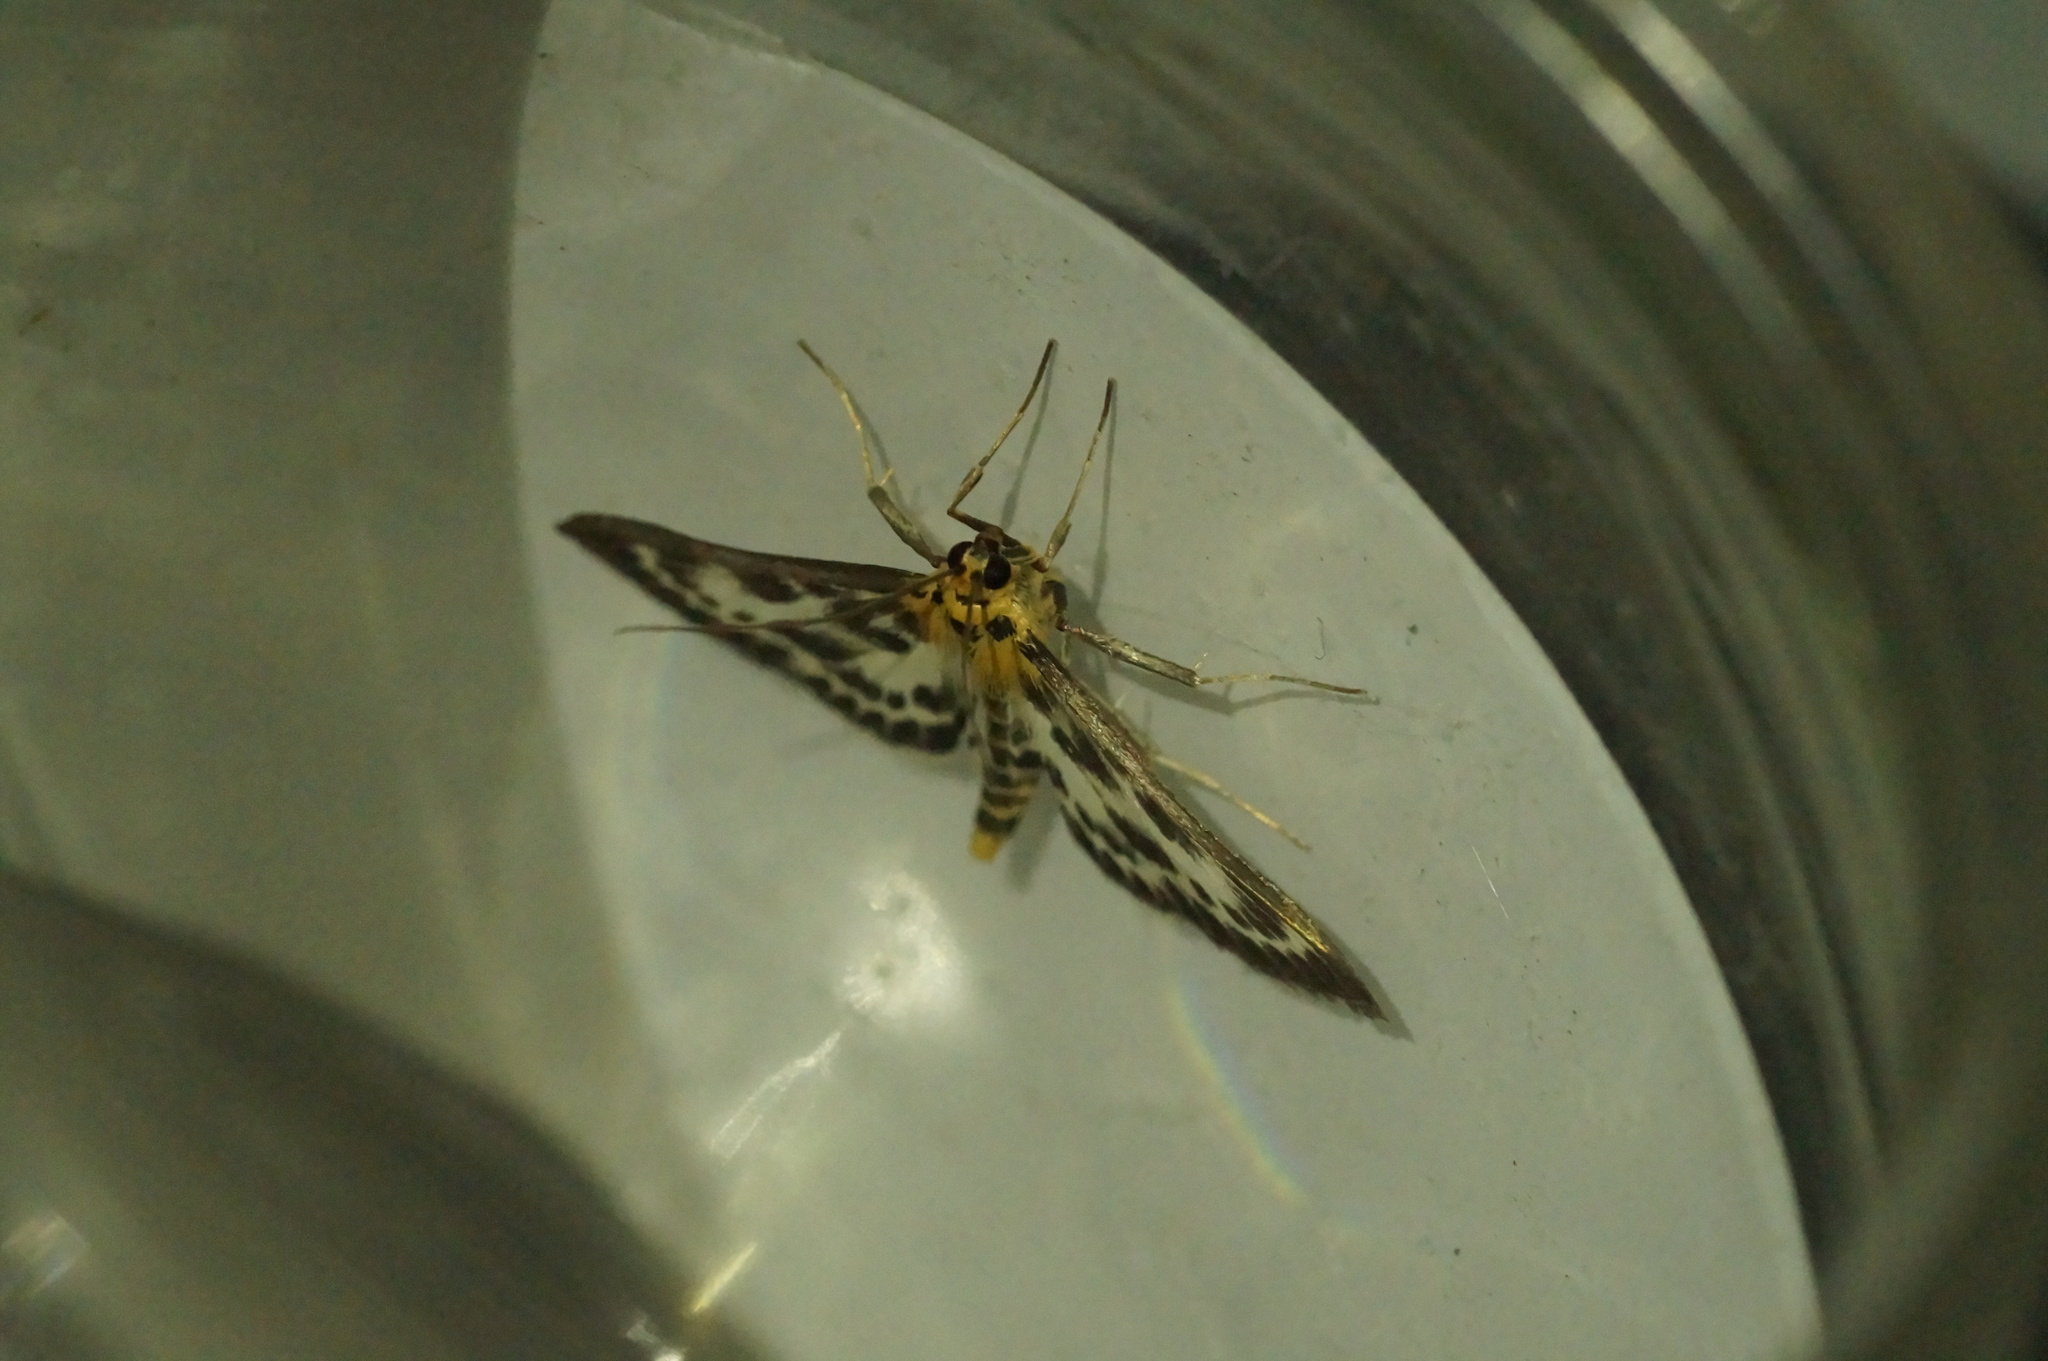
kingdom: Animalia
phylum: Arthropoda
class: Insecta
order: Lepidoptera
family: Crambidae
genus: Anania
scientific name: Anania hortulata
